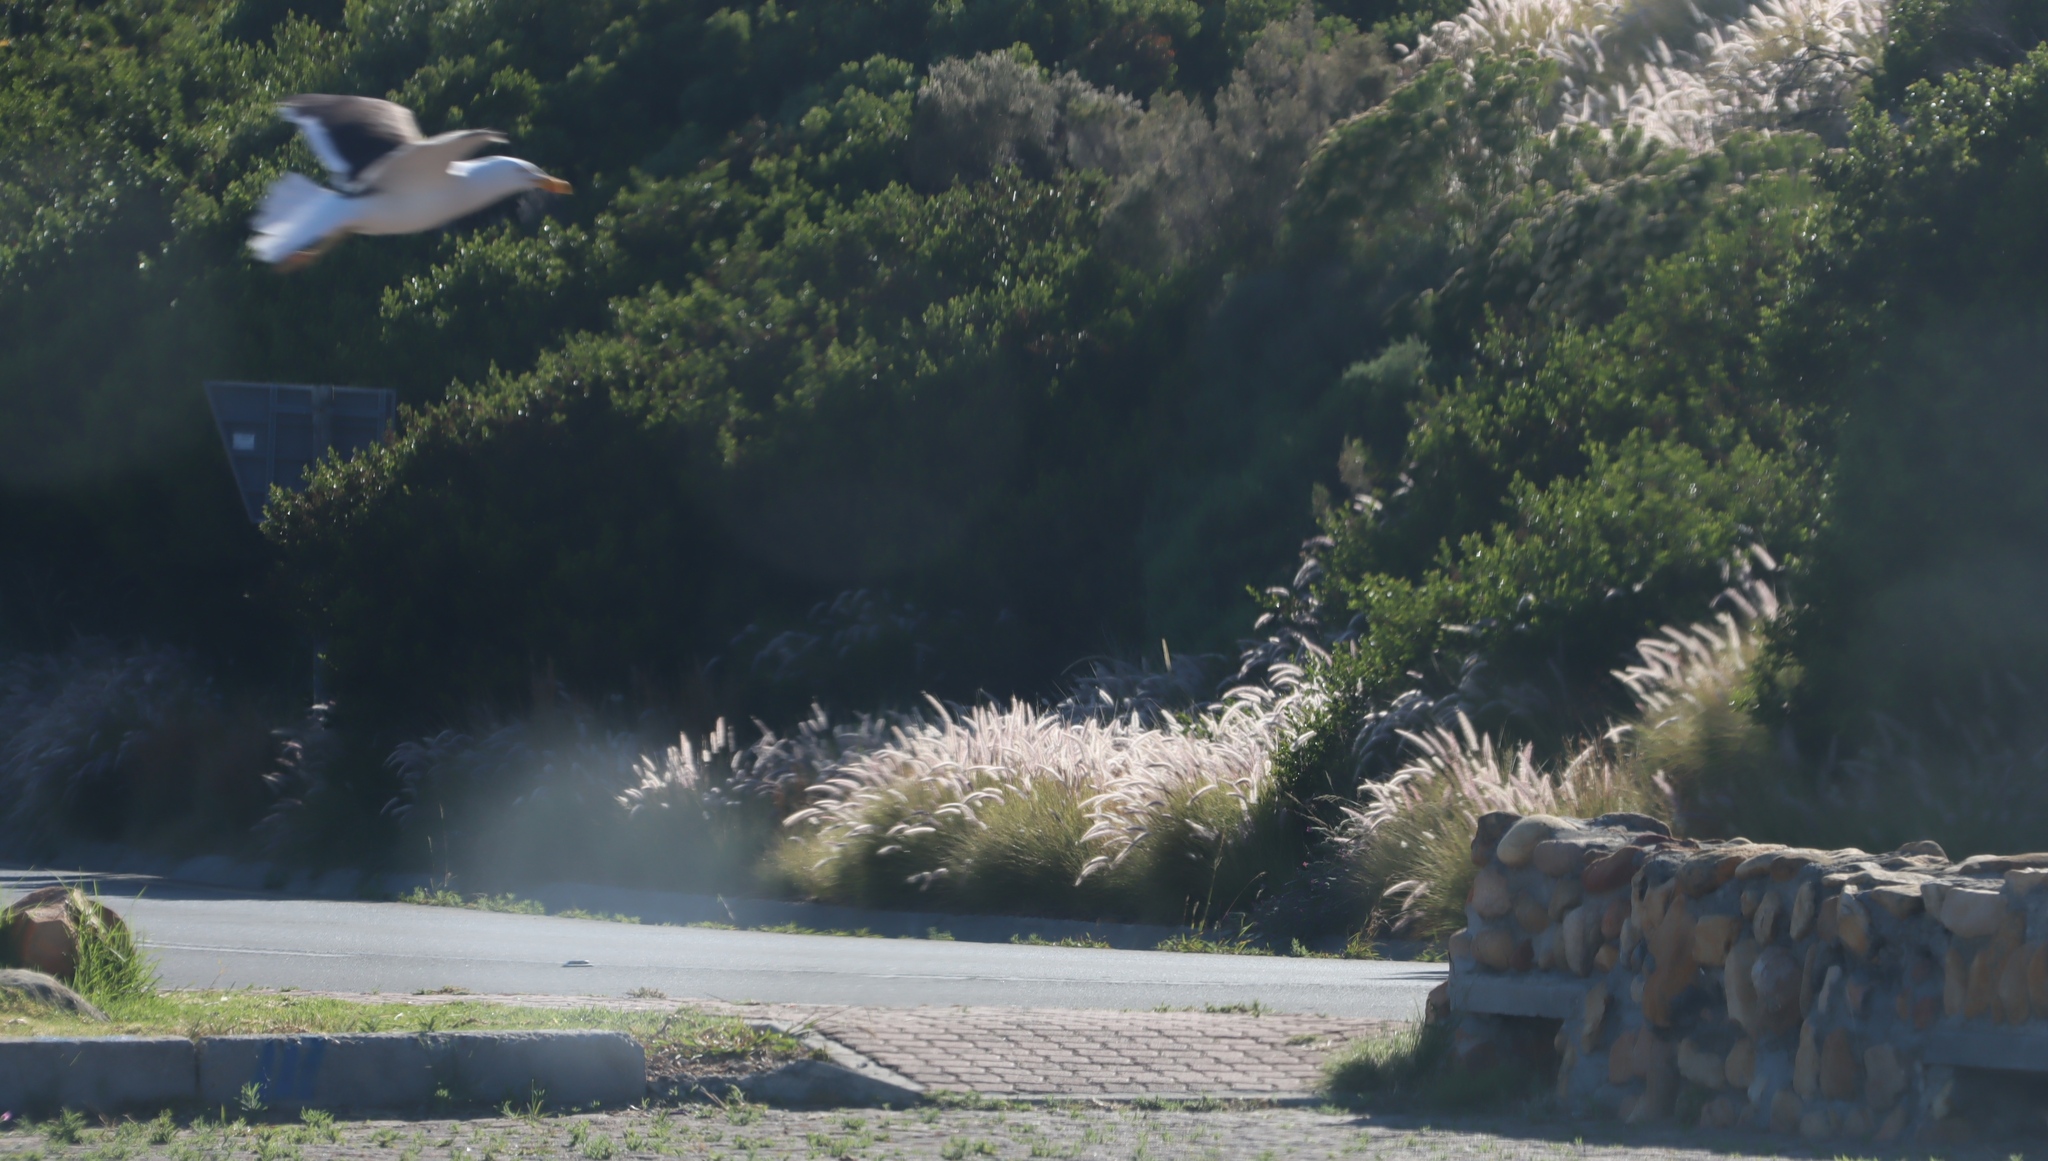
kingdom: Plantae
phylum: Tracheophyta
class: Liliopsida
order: Poales
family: Poaceae
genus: Cenchrus
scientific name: Cenchrus setaceus
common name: Crimson fountaingrass
